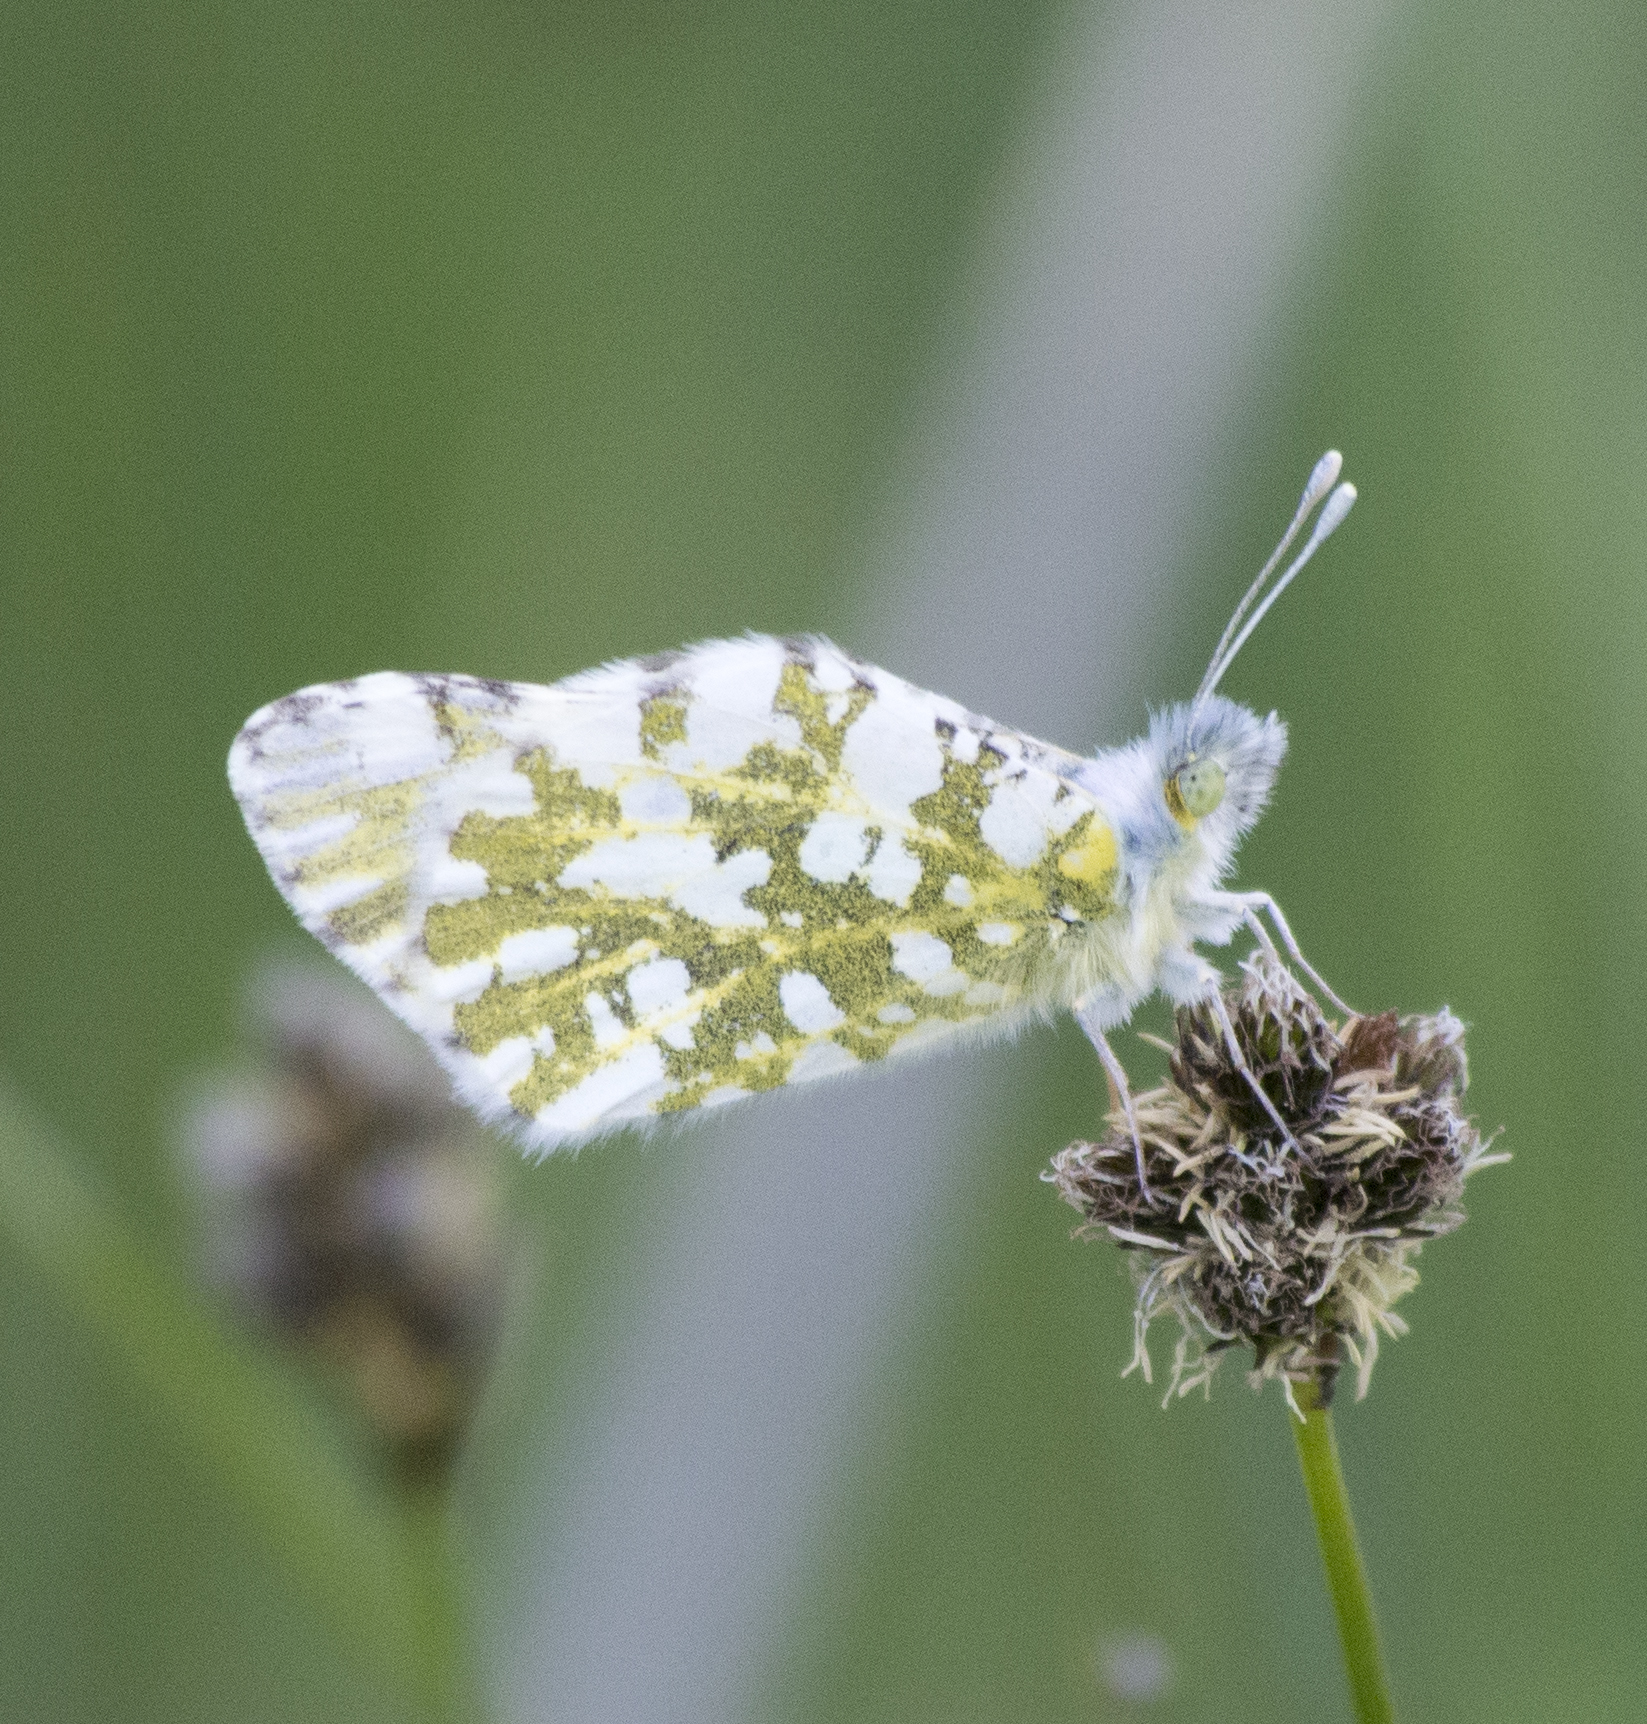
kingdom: Animalia
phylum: Arthropoda
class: Insecta
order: Lepidoptera
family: Pieridae
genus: Euchloe
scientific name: Euchloe ausonides
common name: Creamy marblewing
